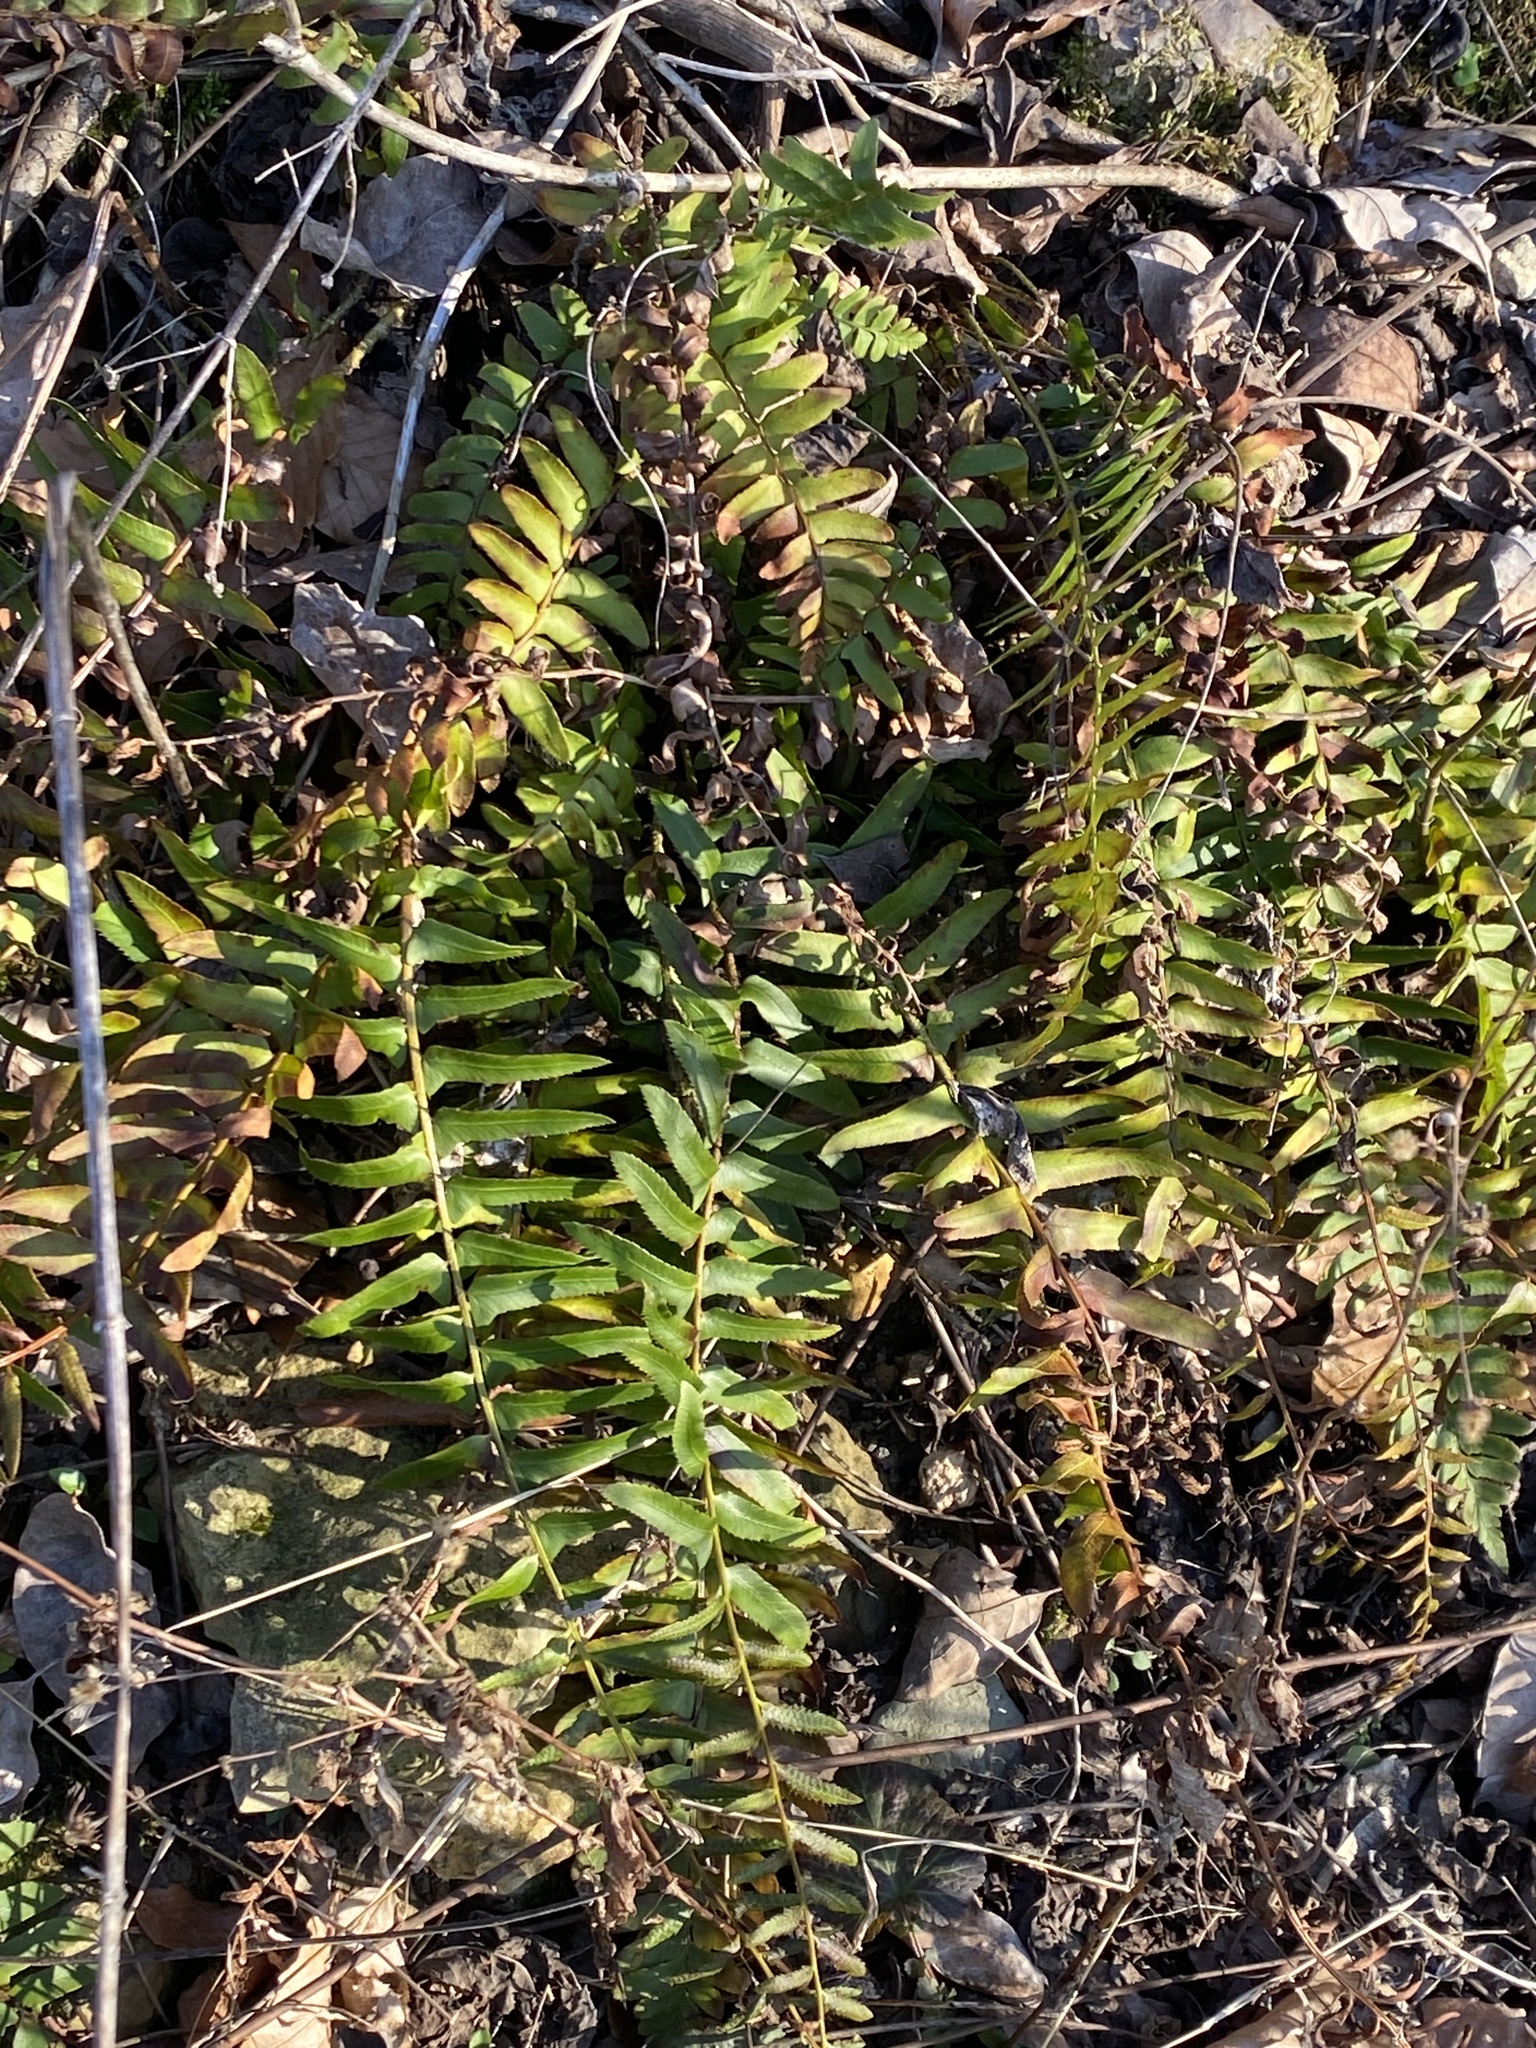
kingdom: Plantae
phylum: Tracheophyta
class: Polypodiopsida
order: Polypodiales
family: Dryopteridaceae
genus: Polystichum
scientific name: Polystichum acrostichoides
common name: Christmas fern
